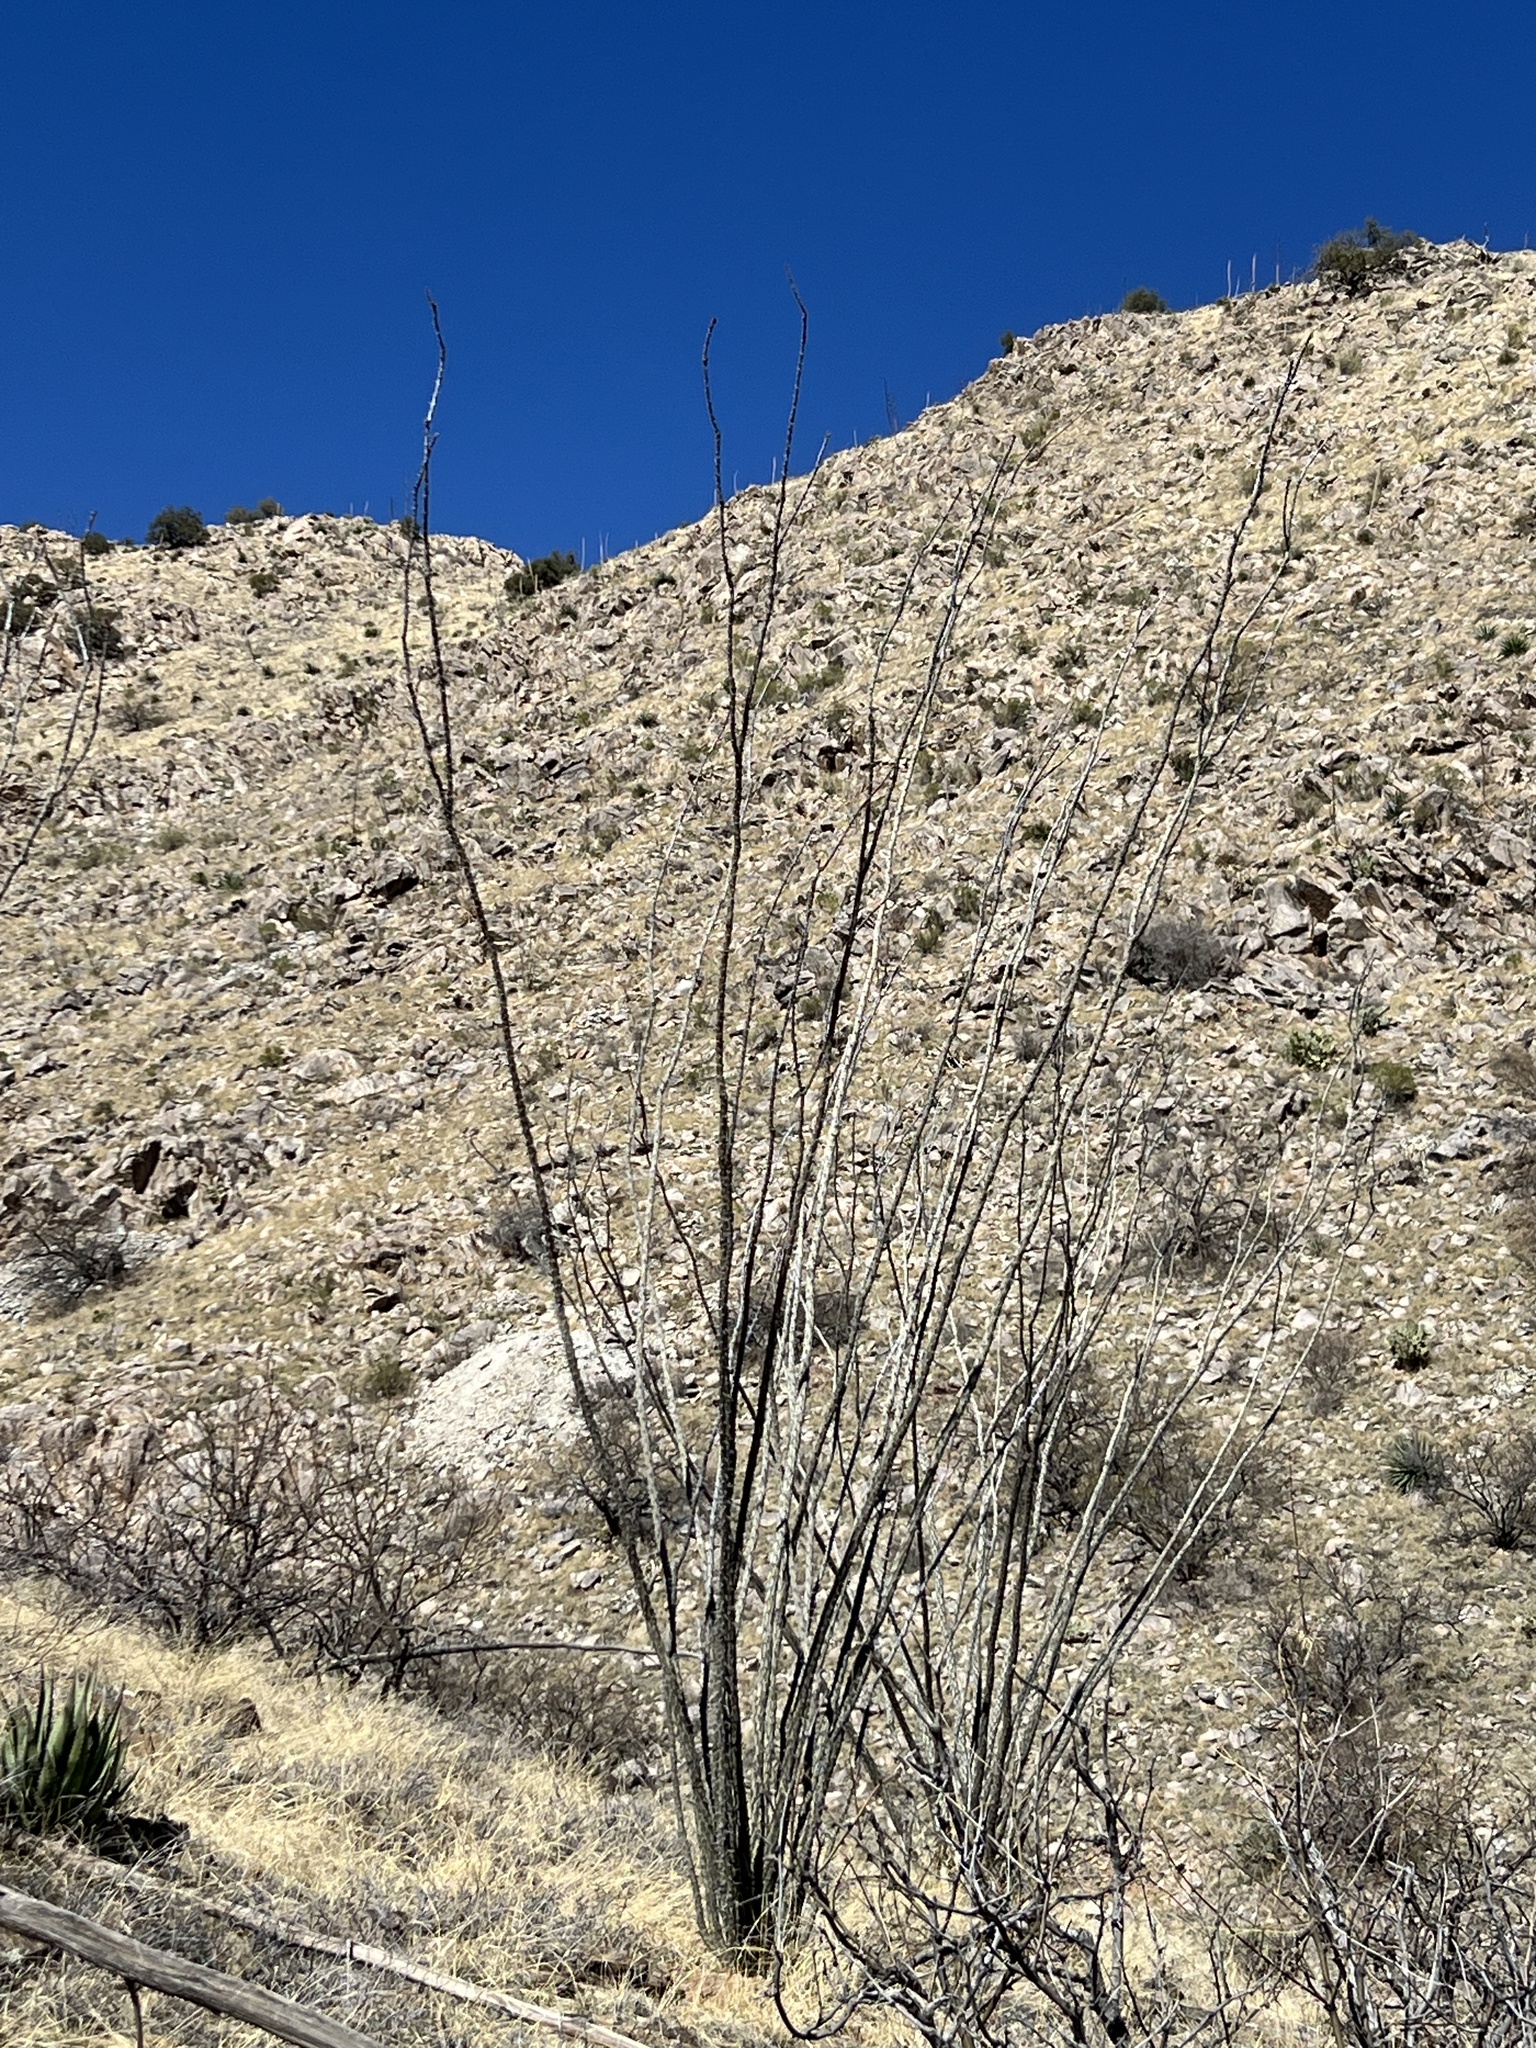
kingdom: Plantae
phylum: Tracheophyta
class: Magnoliopsida
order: Ericales
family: Fouquieriaceae
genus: Fouquieria
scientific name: Fouquieria splendens
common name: Vine-cactus
